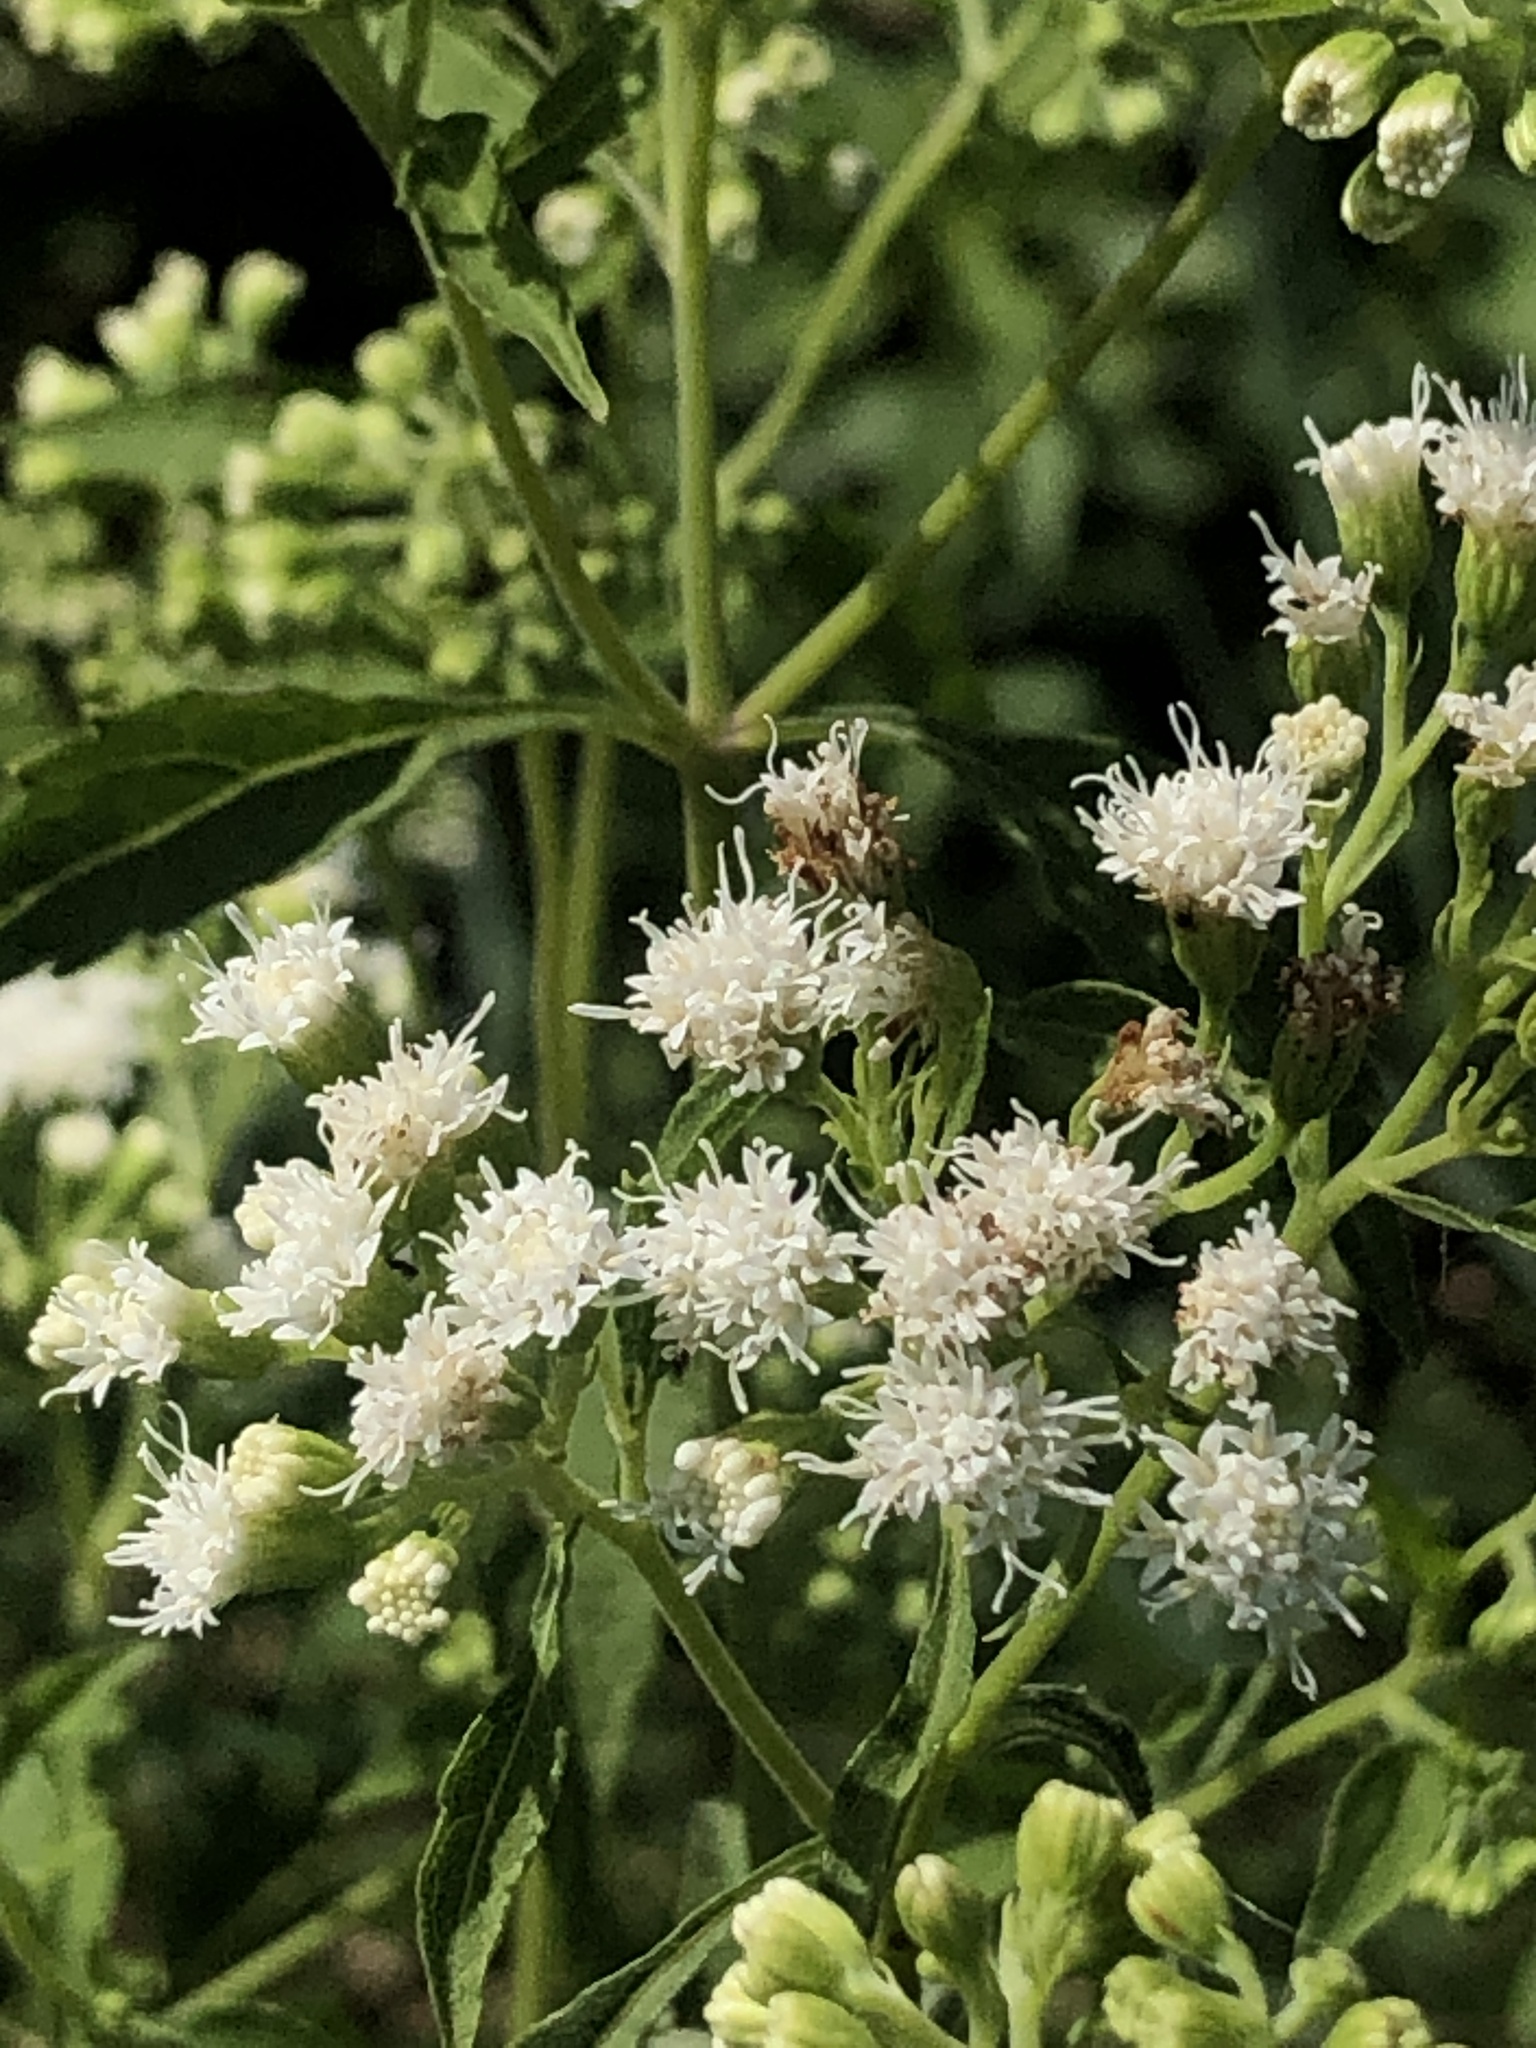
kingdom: Plantae
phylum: Tracheophyta
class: Magnoliopsida
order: Asterales
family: Asteraceae
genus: Ageratina
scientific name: Ageratina altissima
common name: White snakeroot
